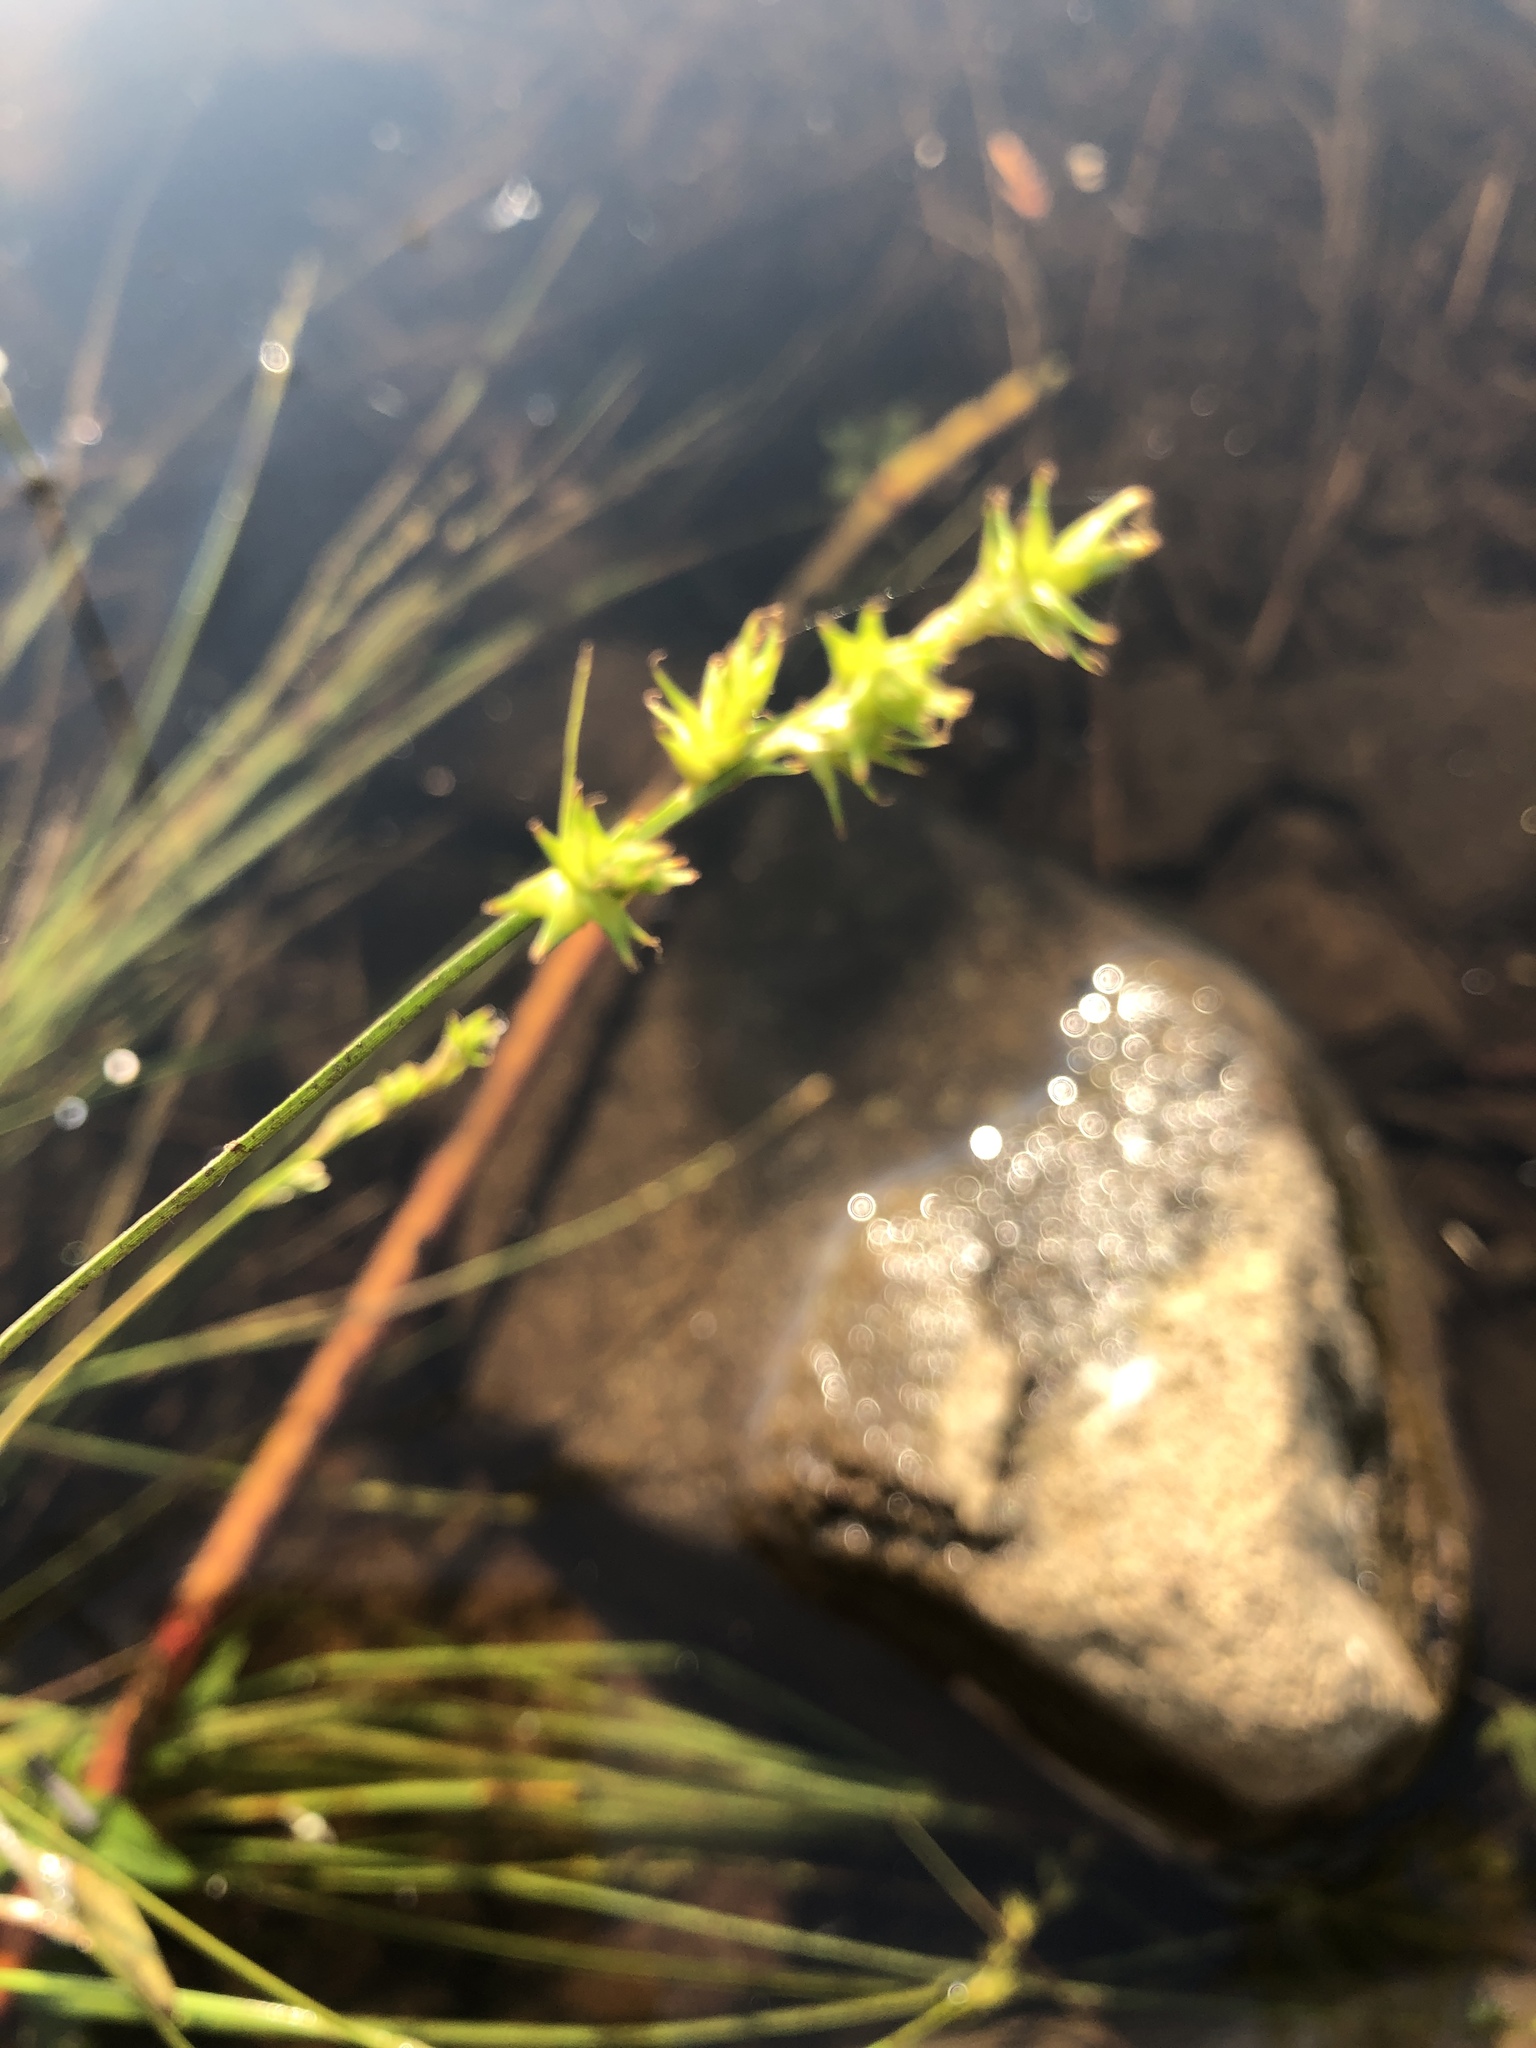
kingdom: Plantae
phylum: Tracheophyta
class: Liliopsida
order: Poales
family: Cyperaceae
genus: Carex
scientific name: Carex echinata
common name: Star sedge
